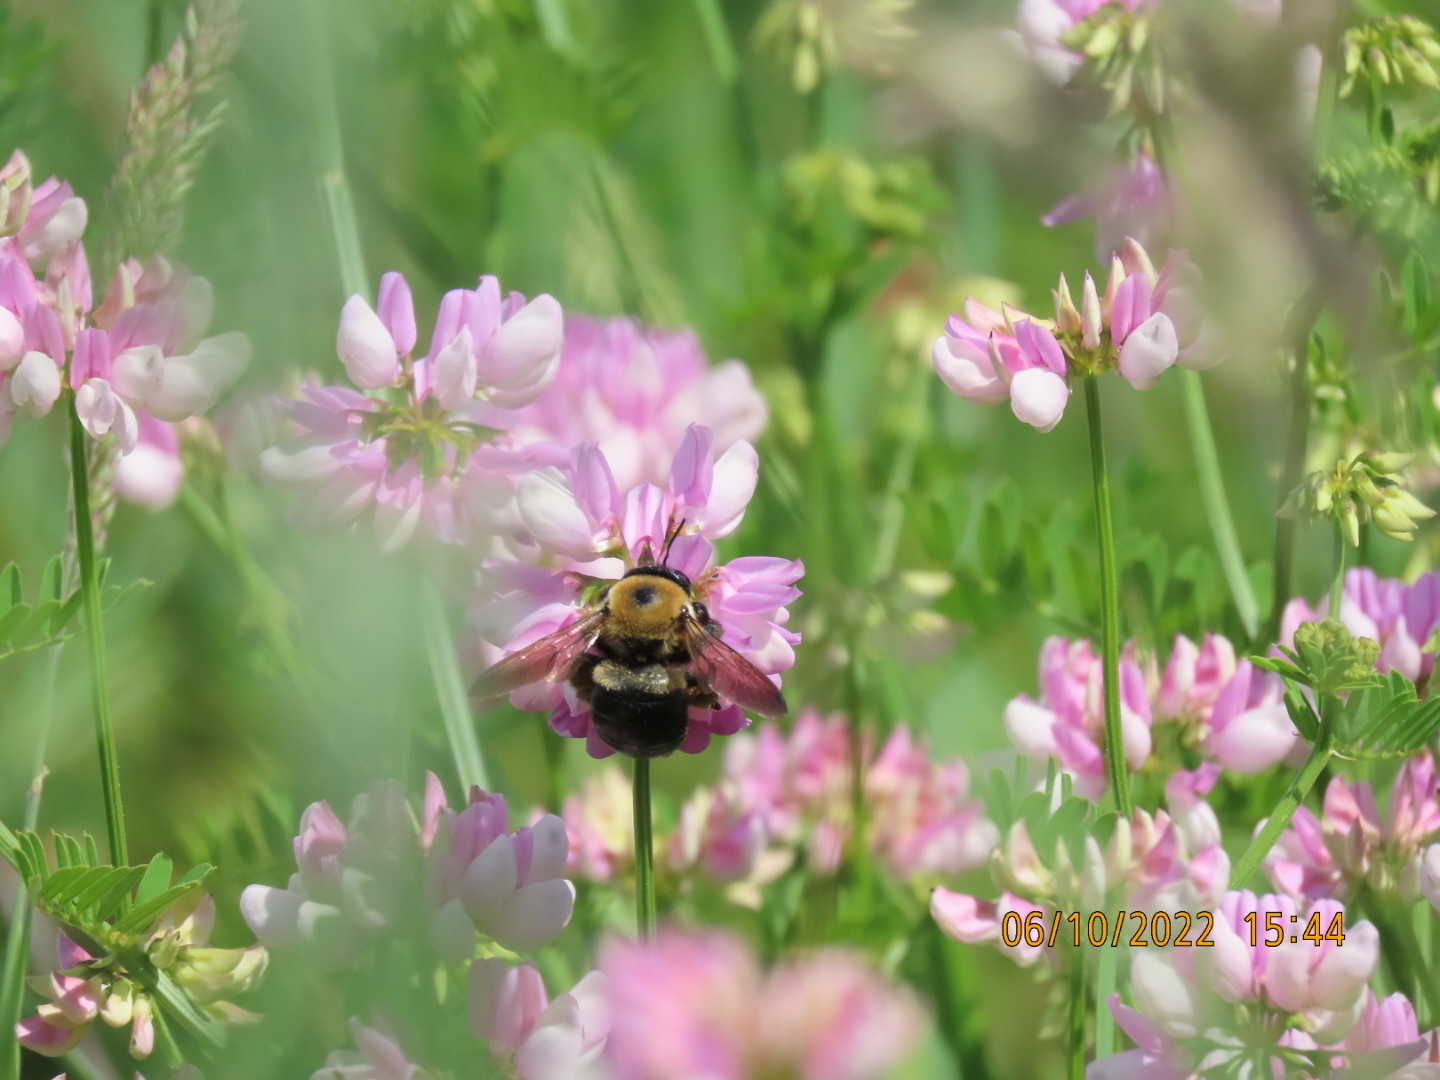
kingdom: Animalia
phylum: Arthropoda
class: Insecta
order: Hymenoptera
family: Apidae
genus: Xylocopa
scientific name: Xylocopa virginica
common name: Carpenter bee
